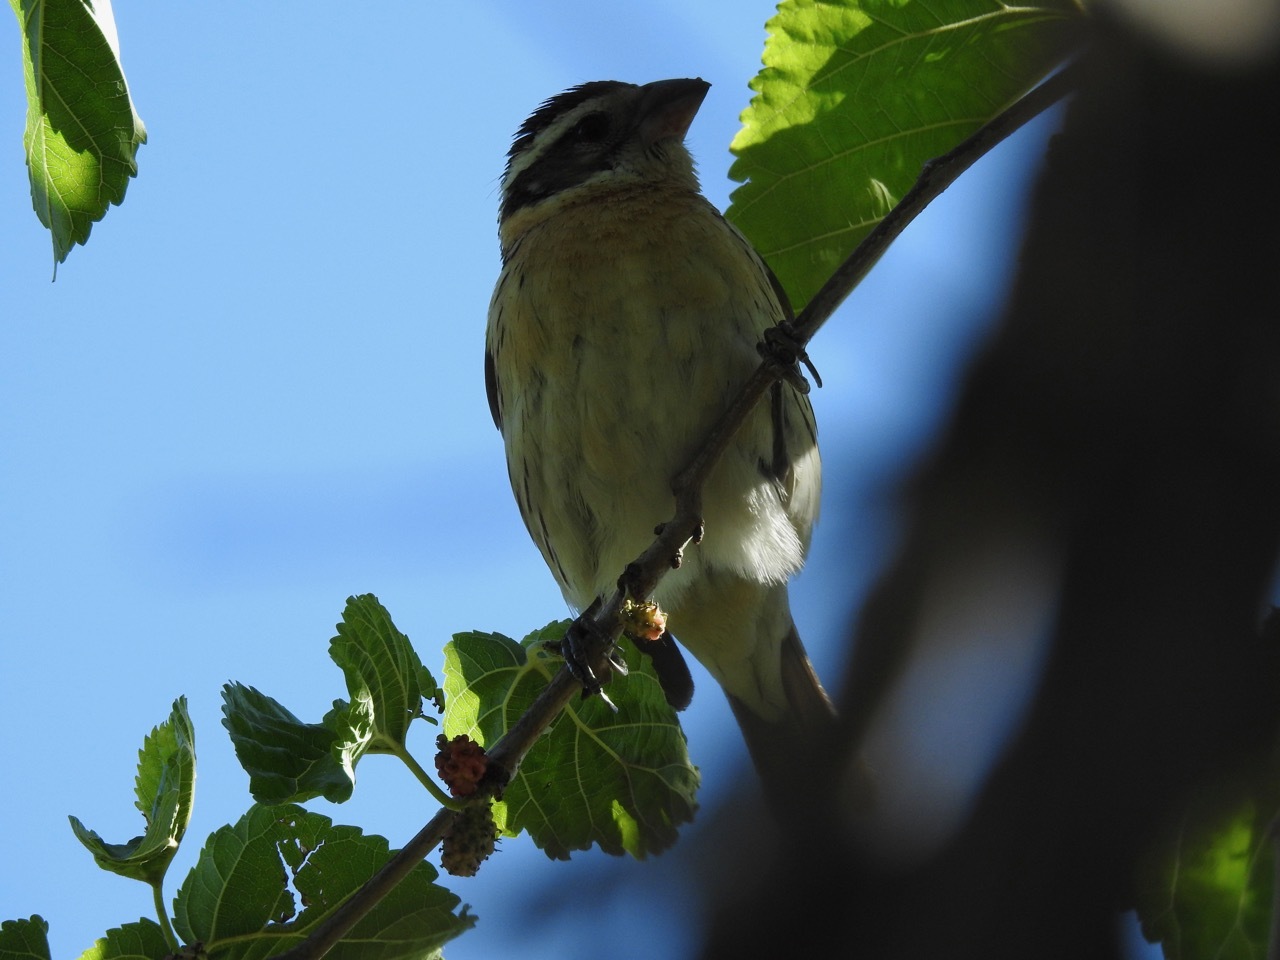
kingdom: Animalia
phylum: Chordata
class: Aves
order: Passeriformes
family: Cardinalidae
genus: Pheucticus
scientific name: Pheucticus melanocephalus
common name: Black-headed grosbeak
